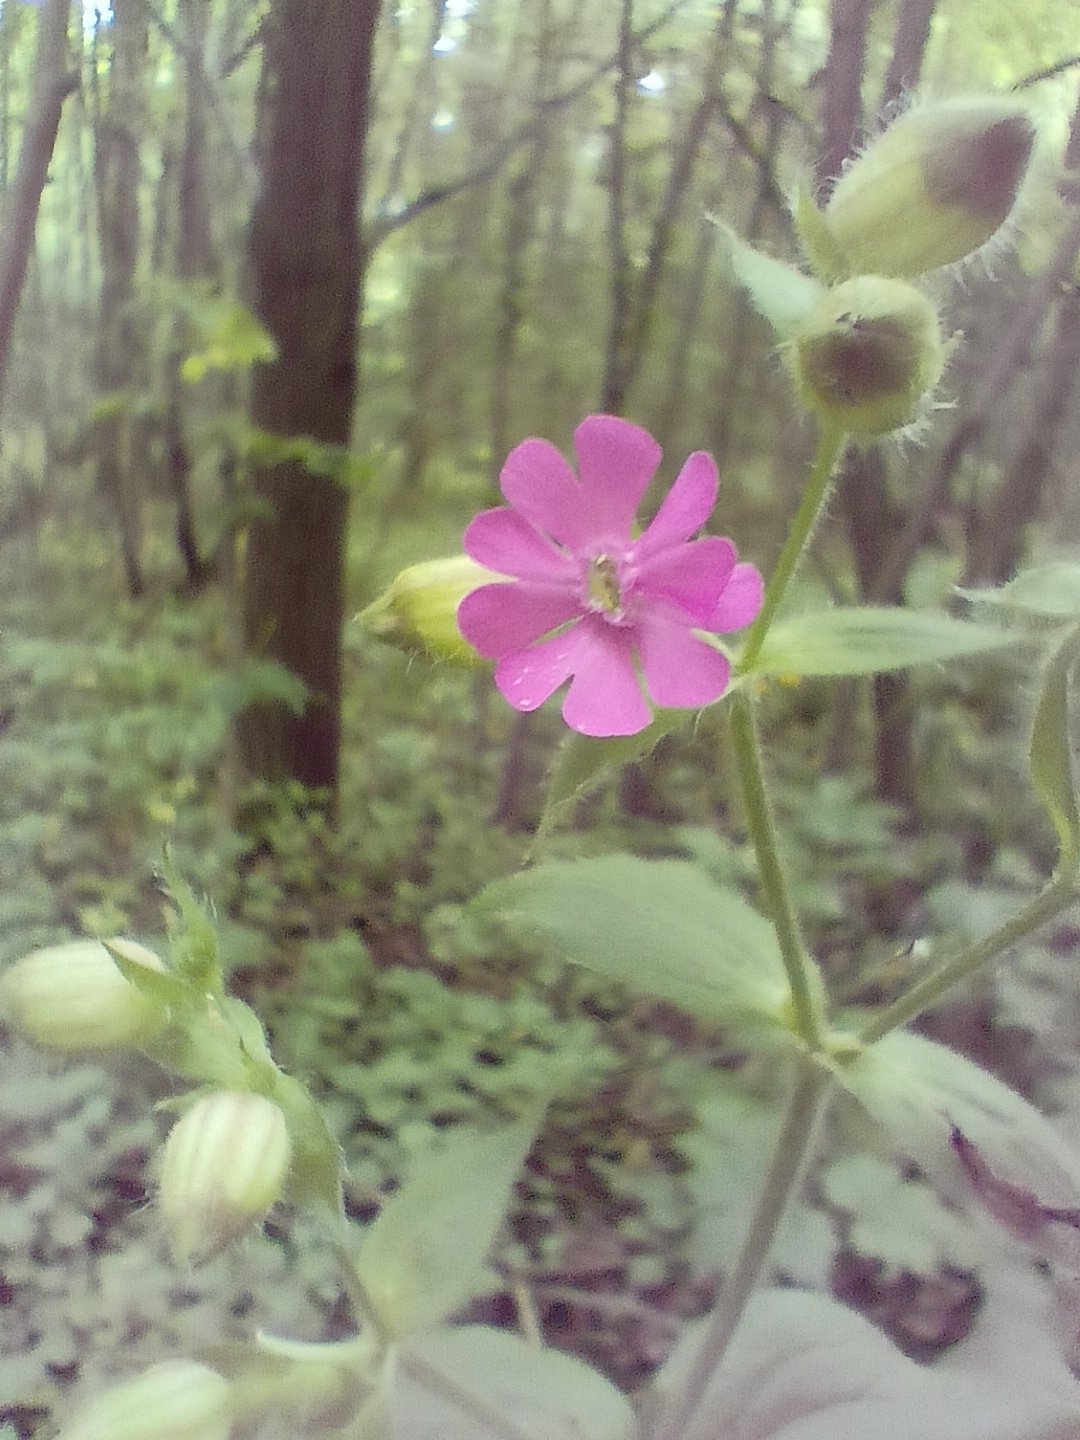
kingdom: Plantae
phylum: Tracheophyta
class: Magnoliopsida
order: Caryophyllales
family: Caryophyllaceae
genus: Silene
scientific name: Silene dioica
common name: Red campion
